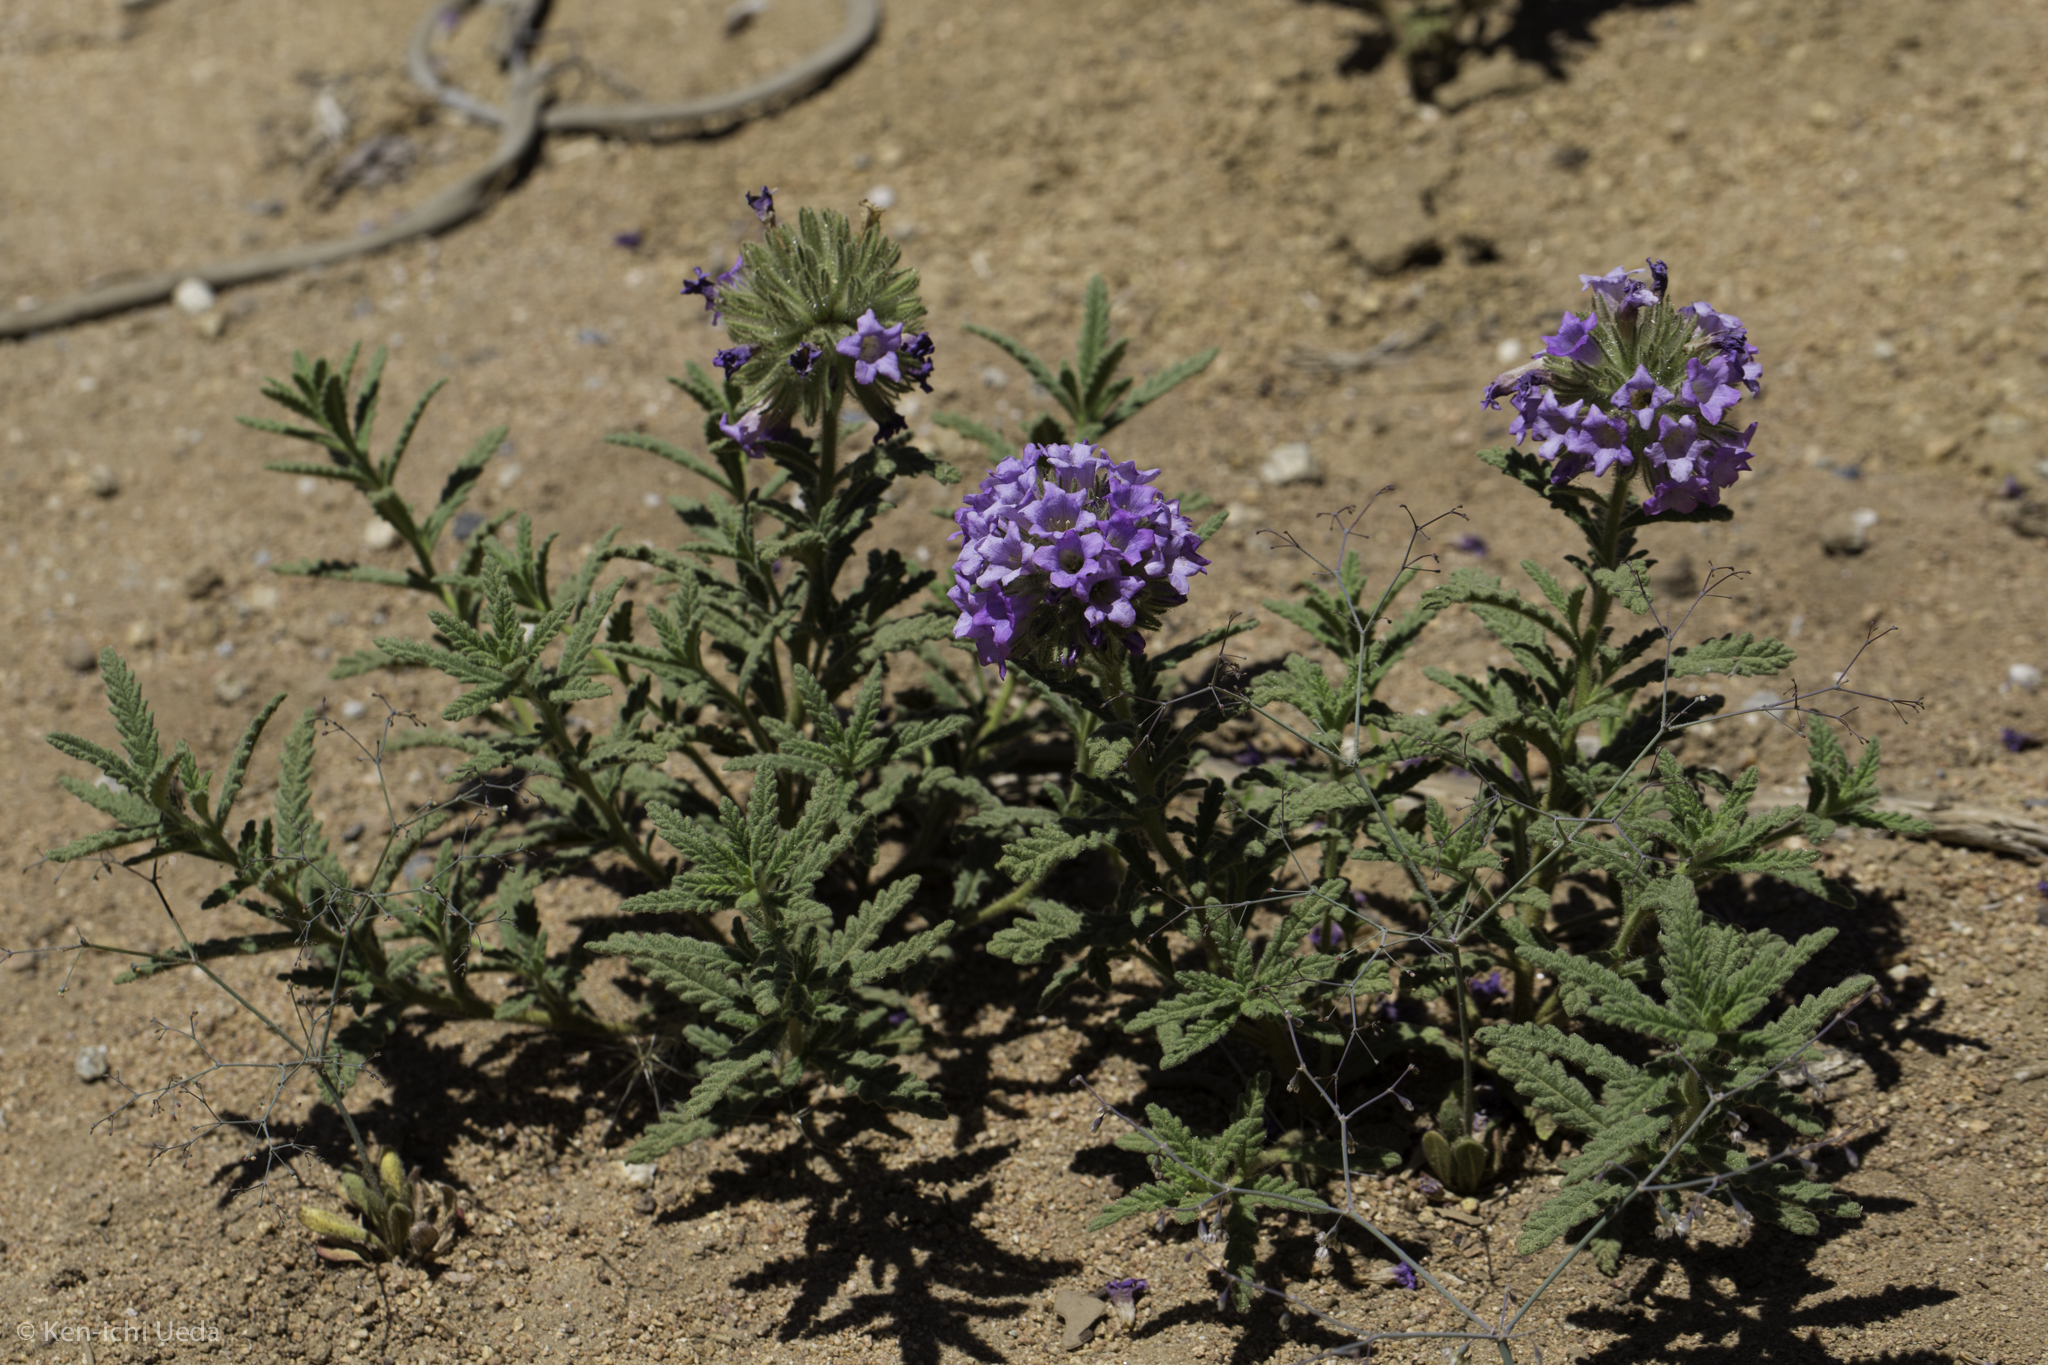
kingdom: Plantae
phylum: Tracheophyta
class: Magnoliopsida
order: Boraginales
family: Namaceae
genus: Nama
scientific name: Nama rothrockii
